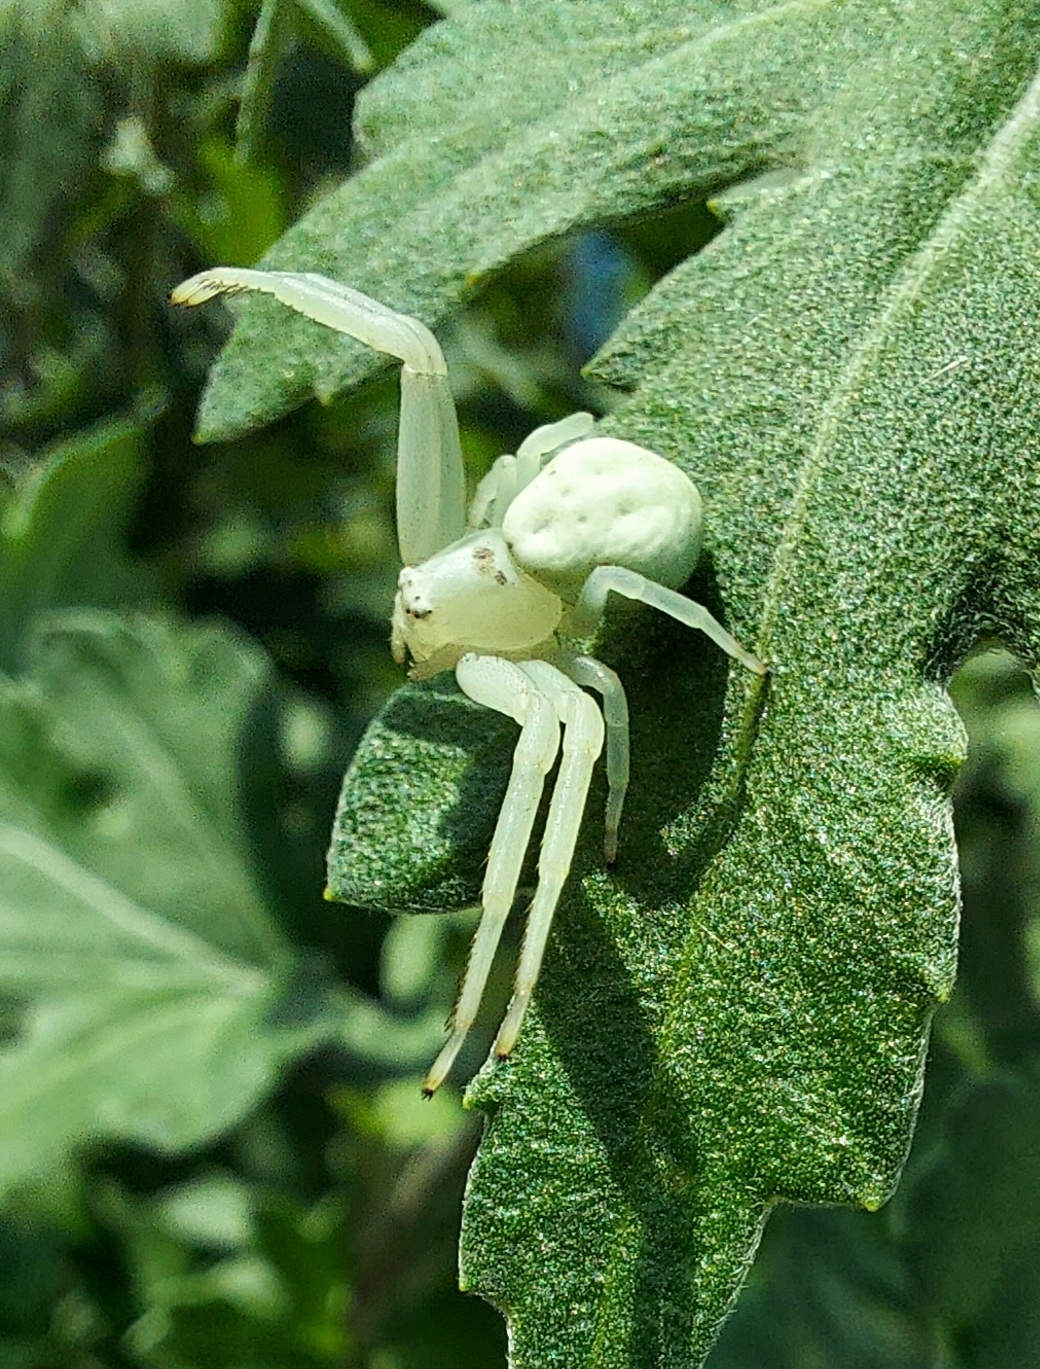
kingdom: Animalia
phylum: Arthropoda
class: Arachnida
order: Araneae
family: Thomisidae
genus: Misumena
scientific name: Misumena vatia
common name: Goldenrod crab spider
